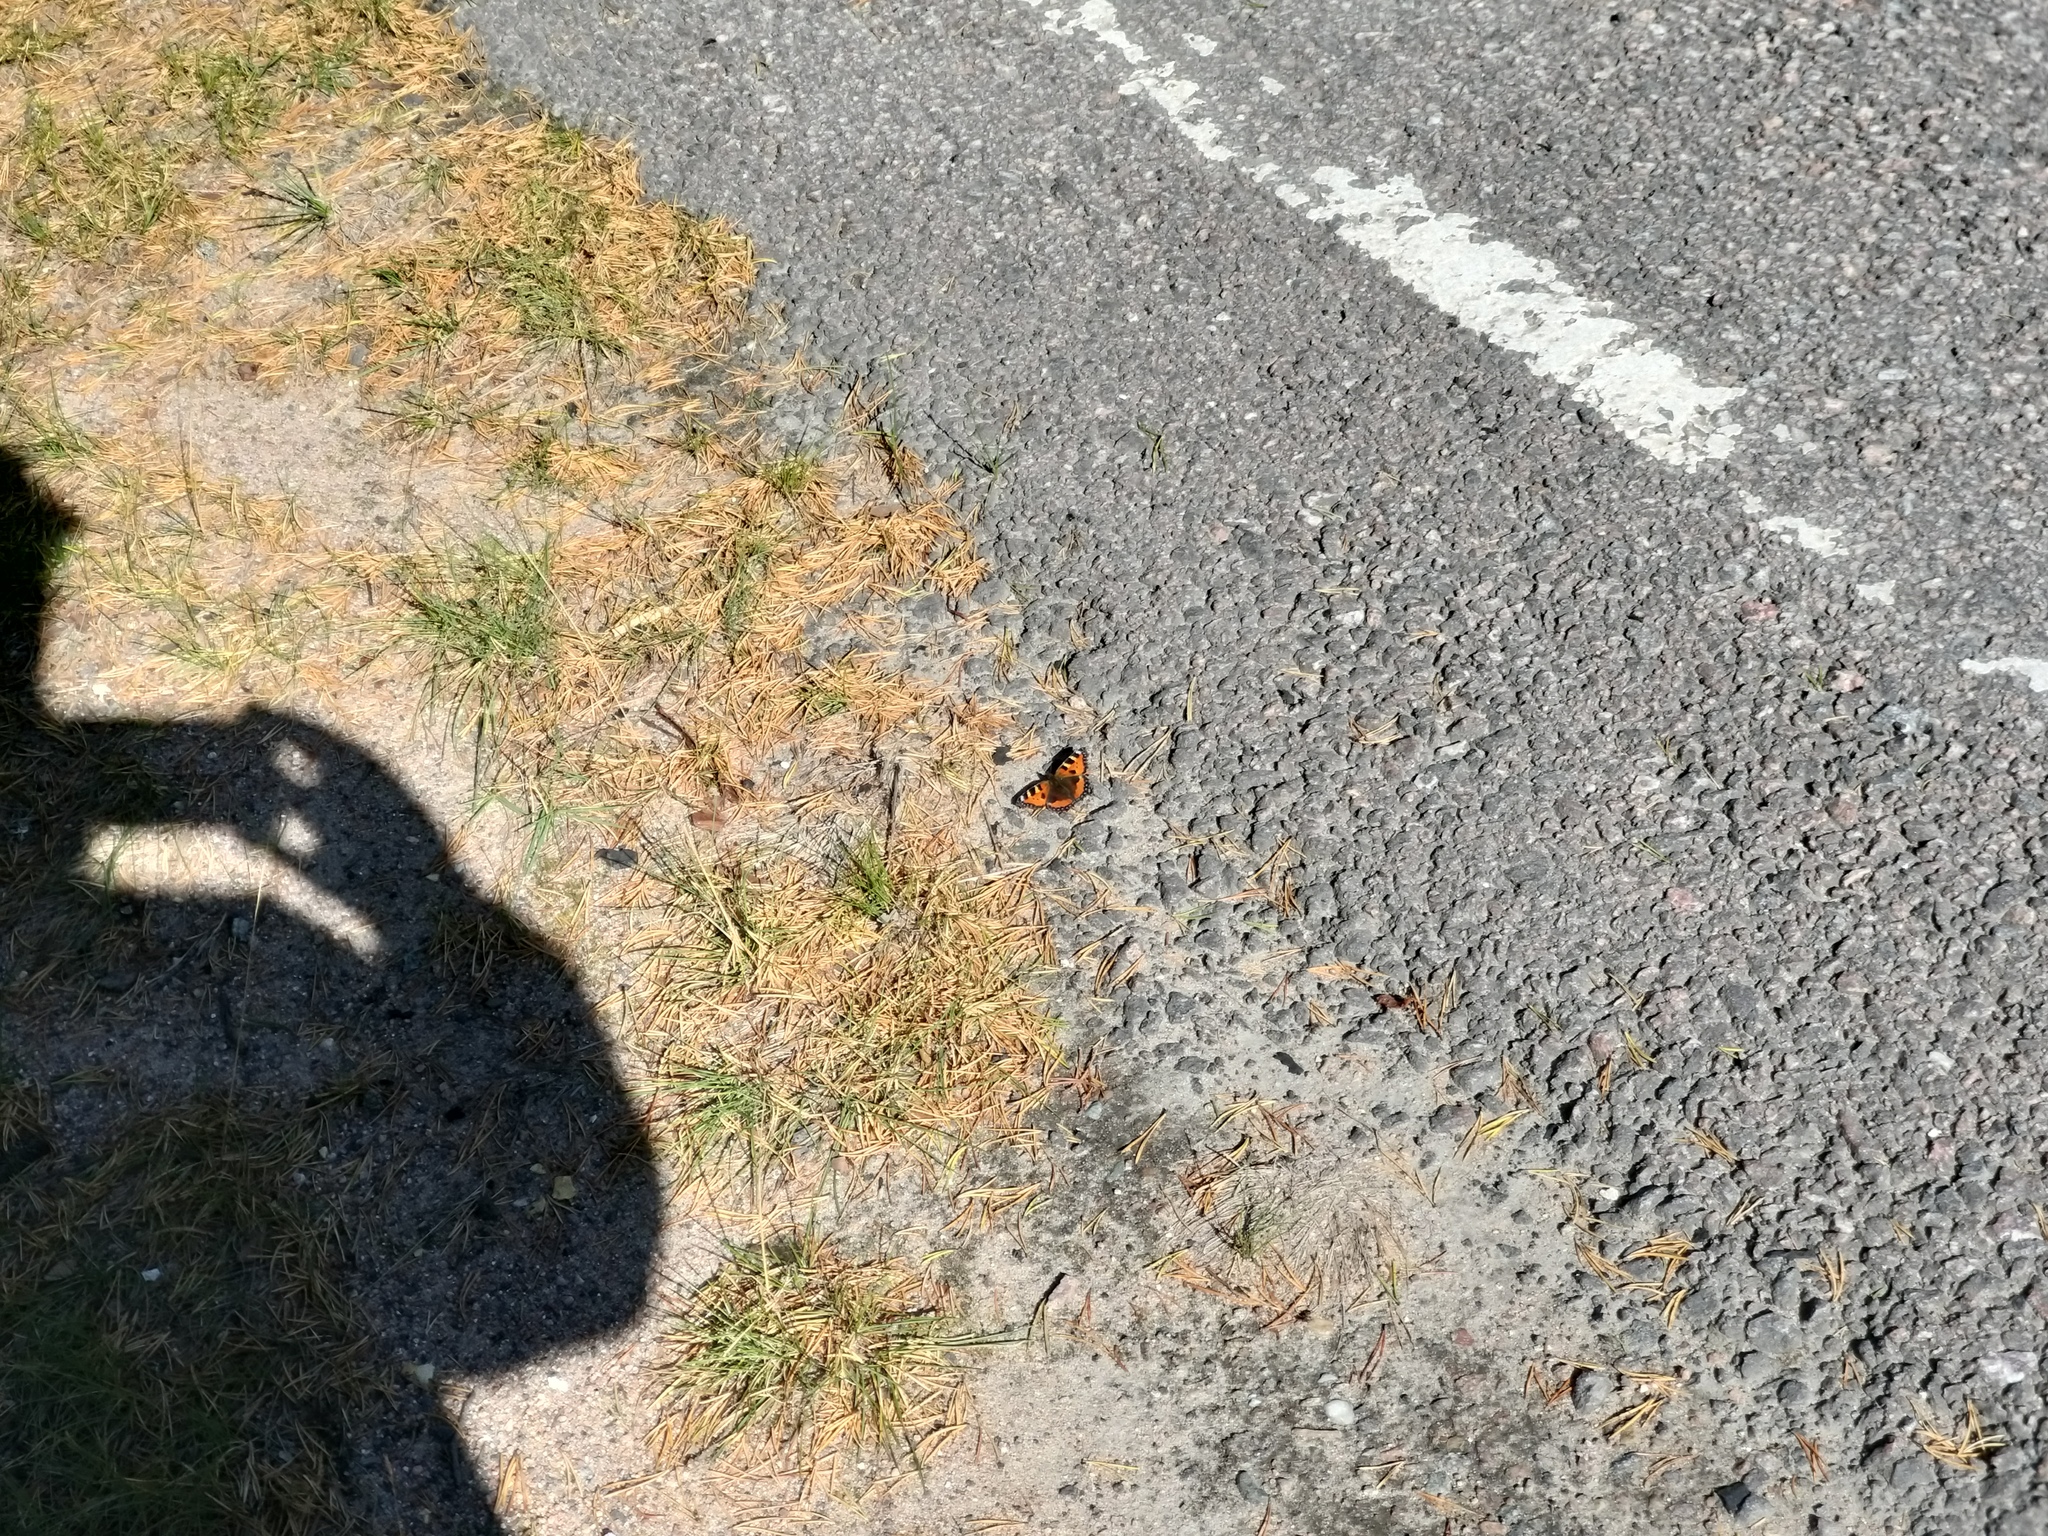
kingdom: Animalia
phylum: Arthropoda
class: Insecta
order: Lepidoptera
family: Nymphalidae
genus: Aglais
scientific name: Aglais urticae
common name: Small tortoiseshell
